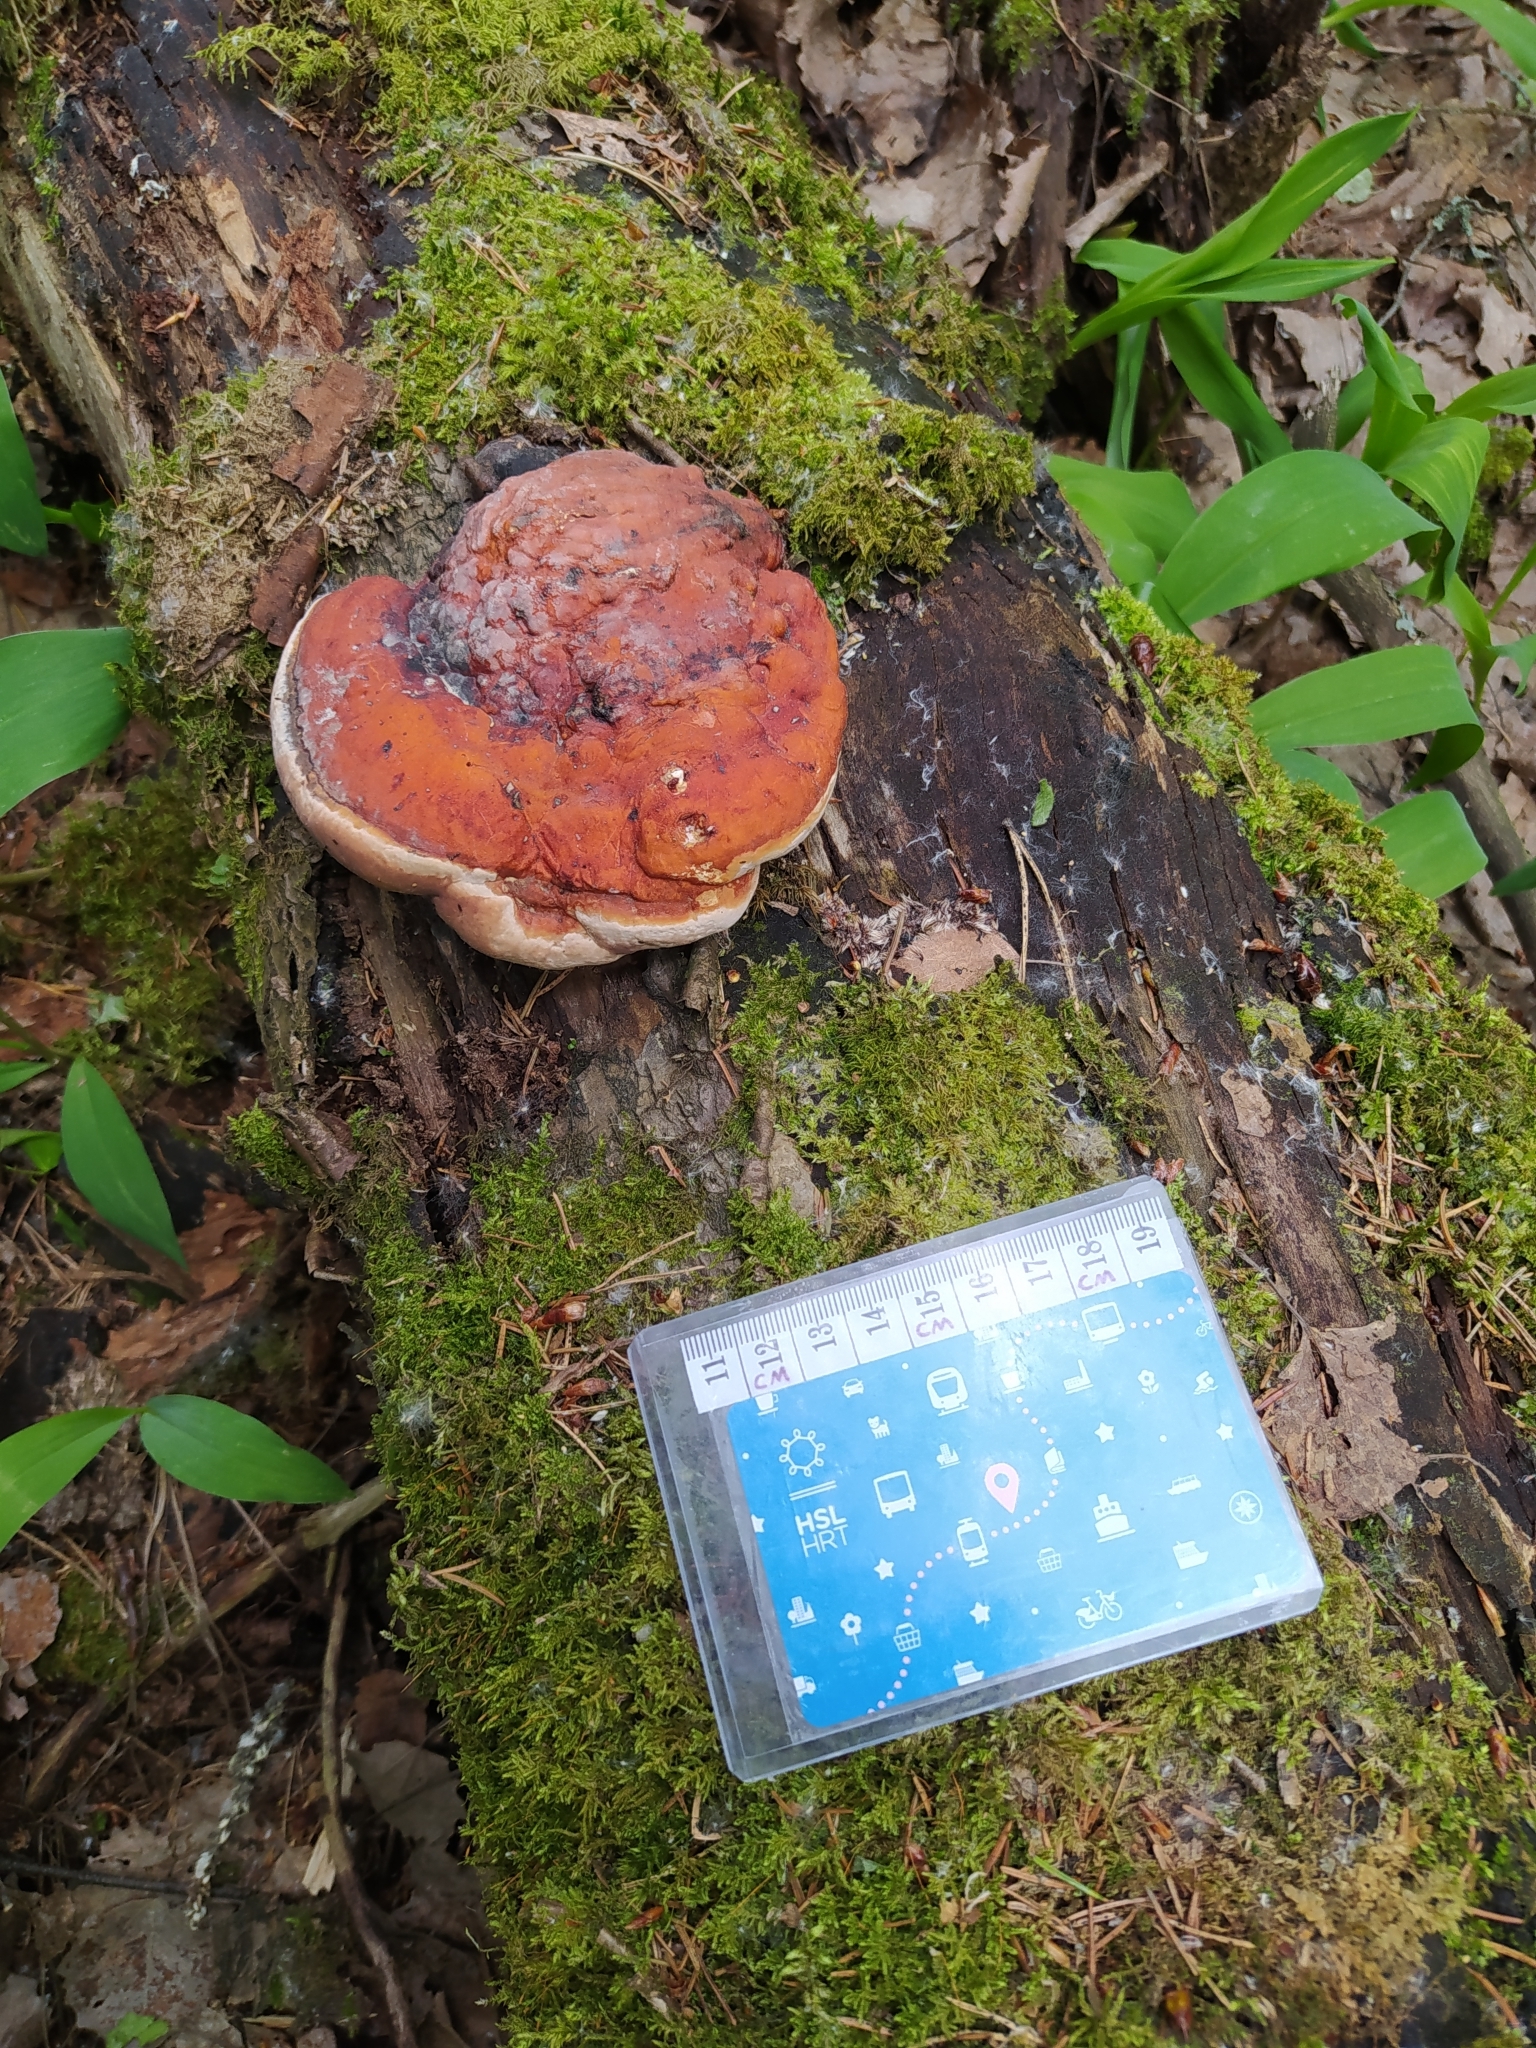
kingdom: Fungi
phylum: Basidiomycota
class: Agaricomycetes
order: Polyporales
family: Fomitopsidaceae
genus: Fomitopsis
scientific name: Fomitopsis pinicola
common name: Red-belted bracket
